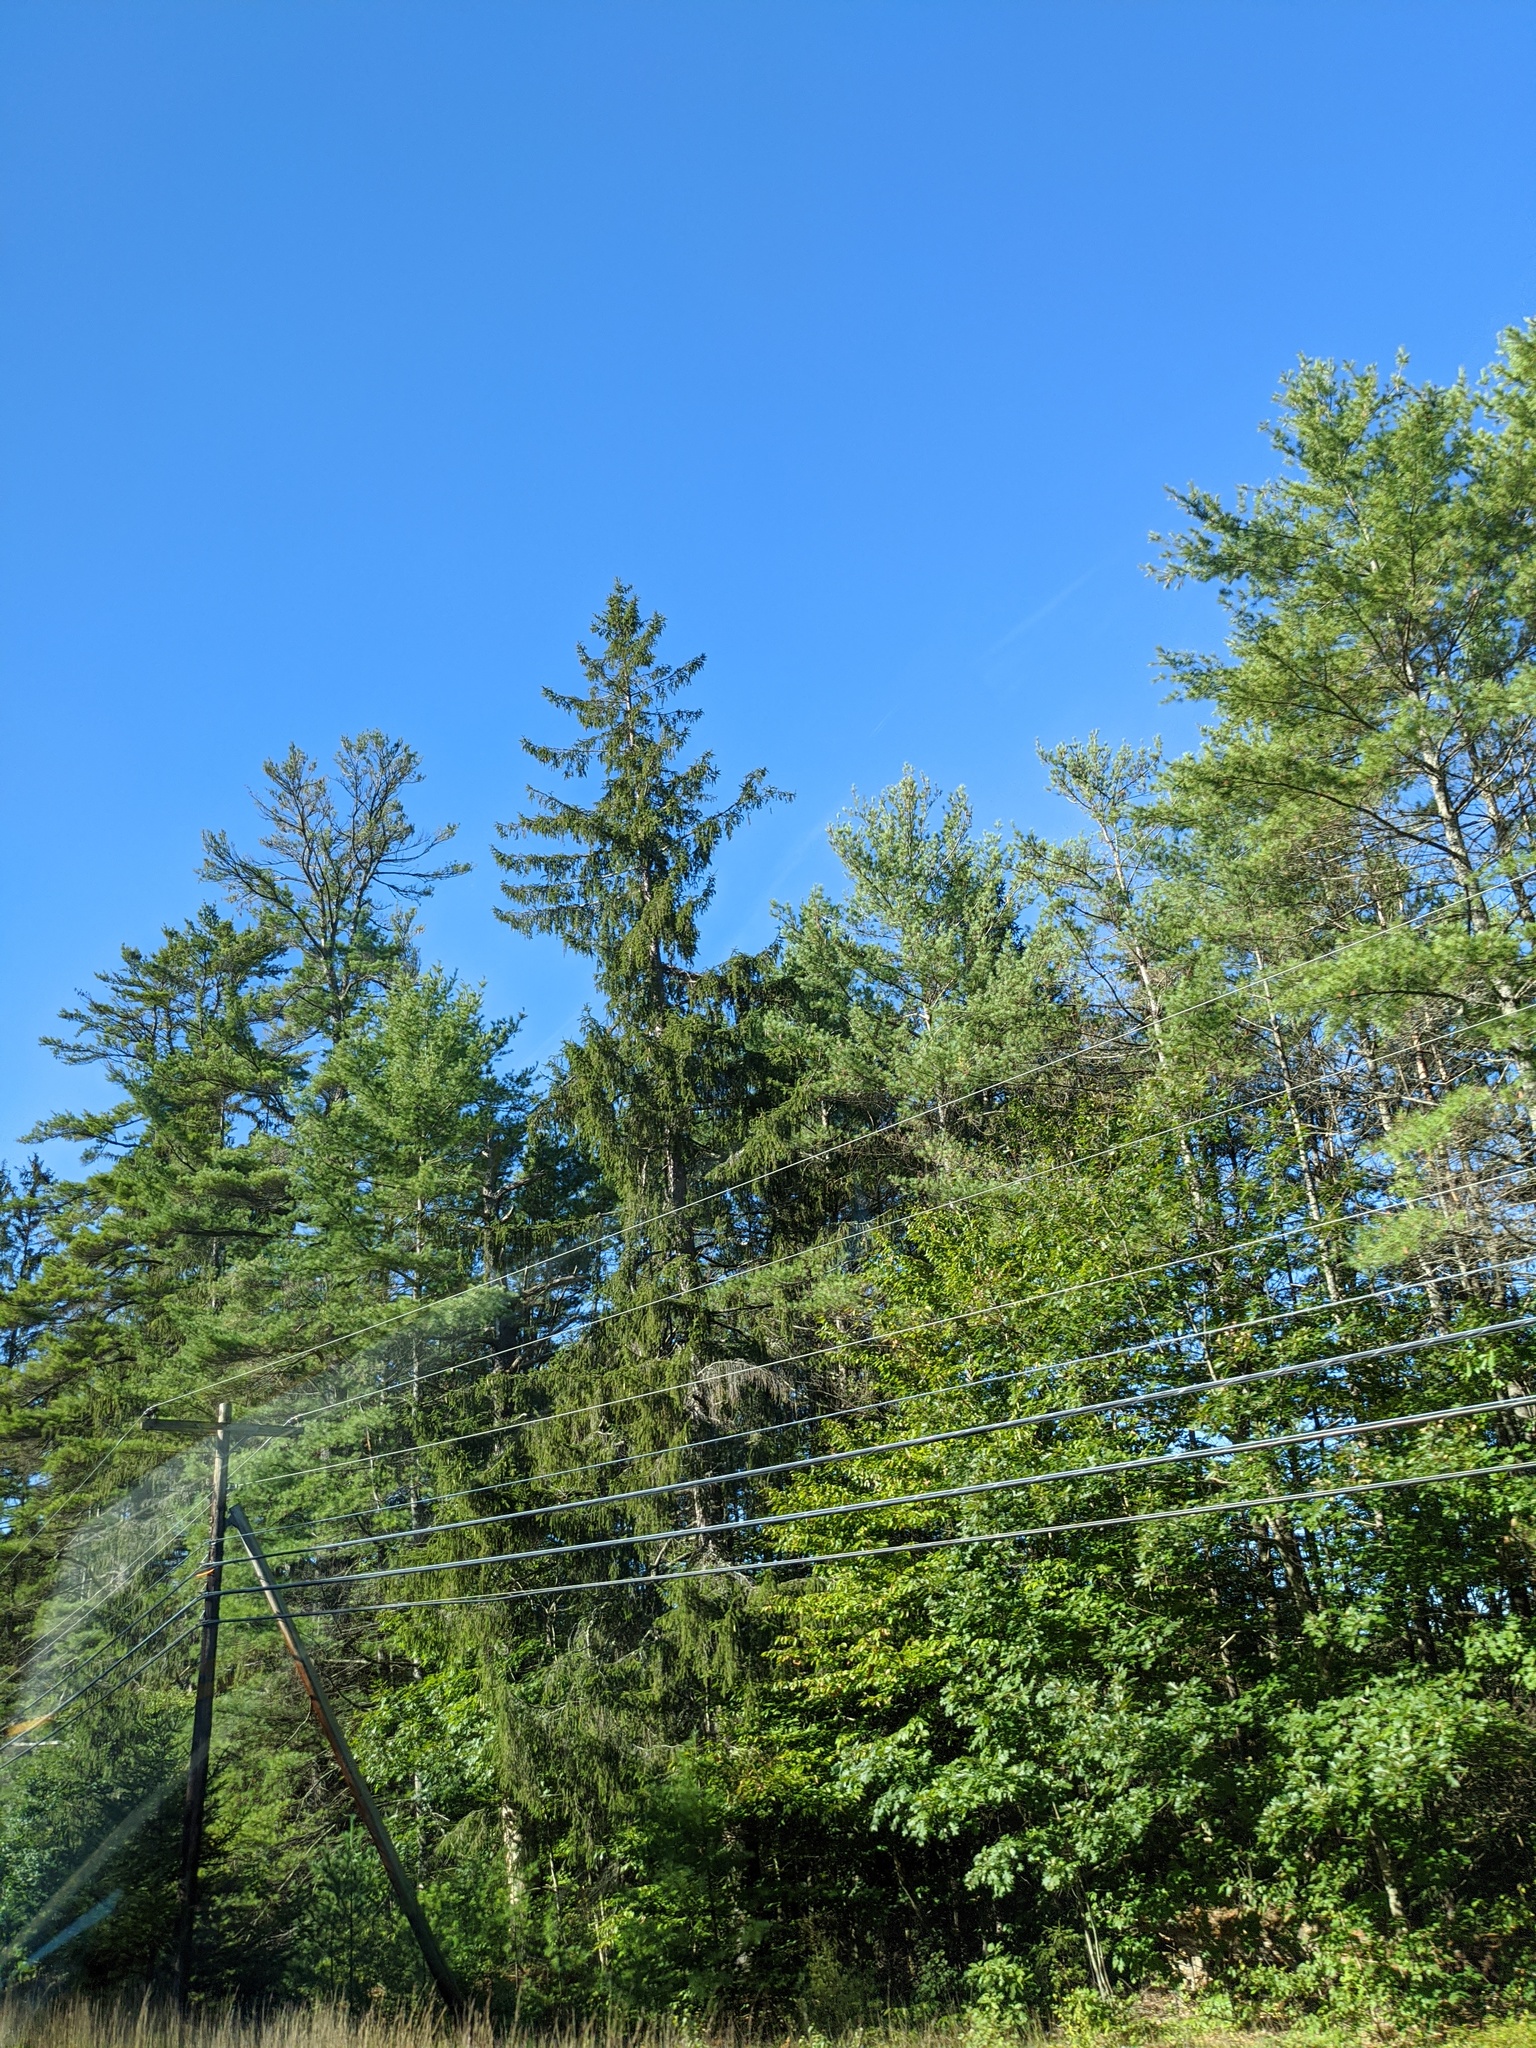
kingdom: Plantae
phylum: Tracheophyta
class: Pinopsida
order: Pinales
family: Pinaceae
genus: Picea
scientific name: Picea abies
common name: Norway spruce
